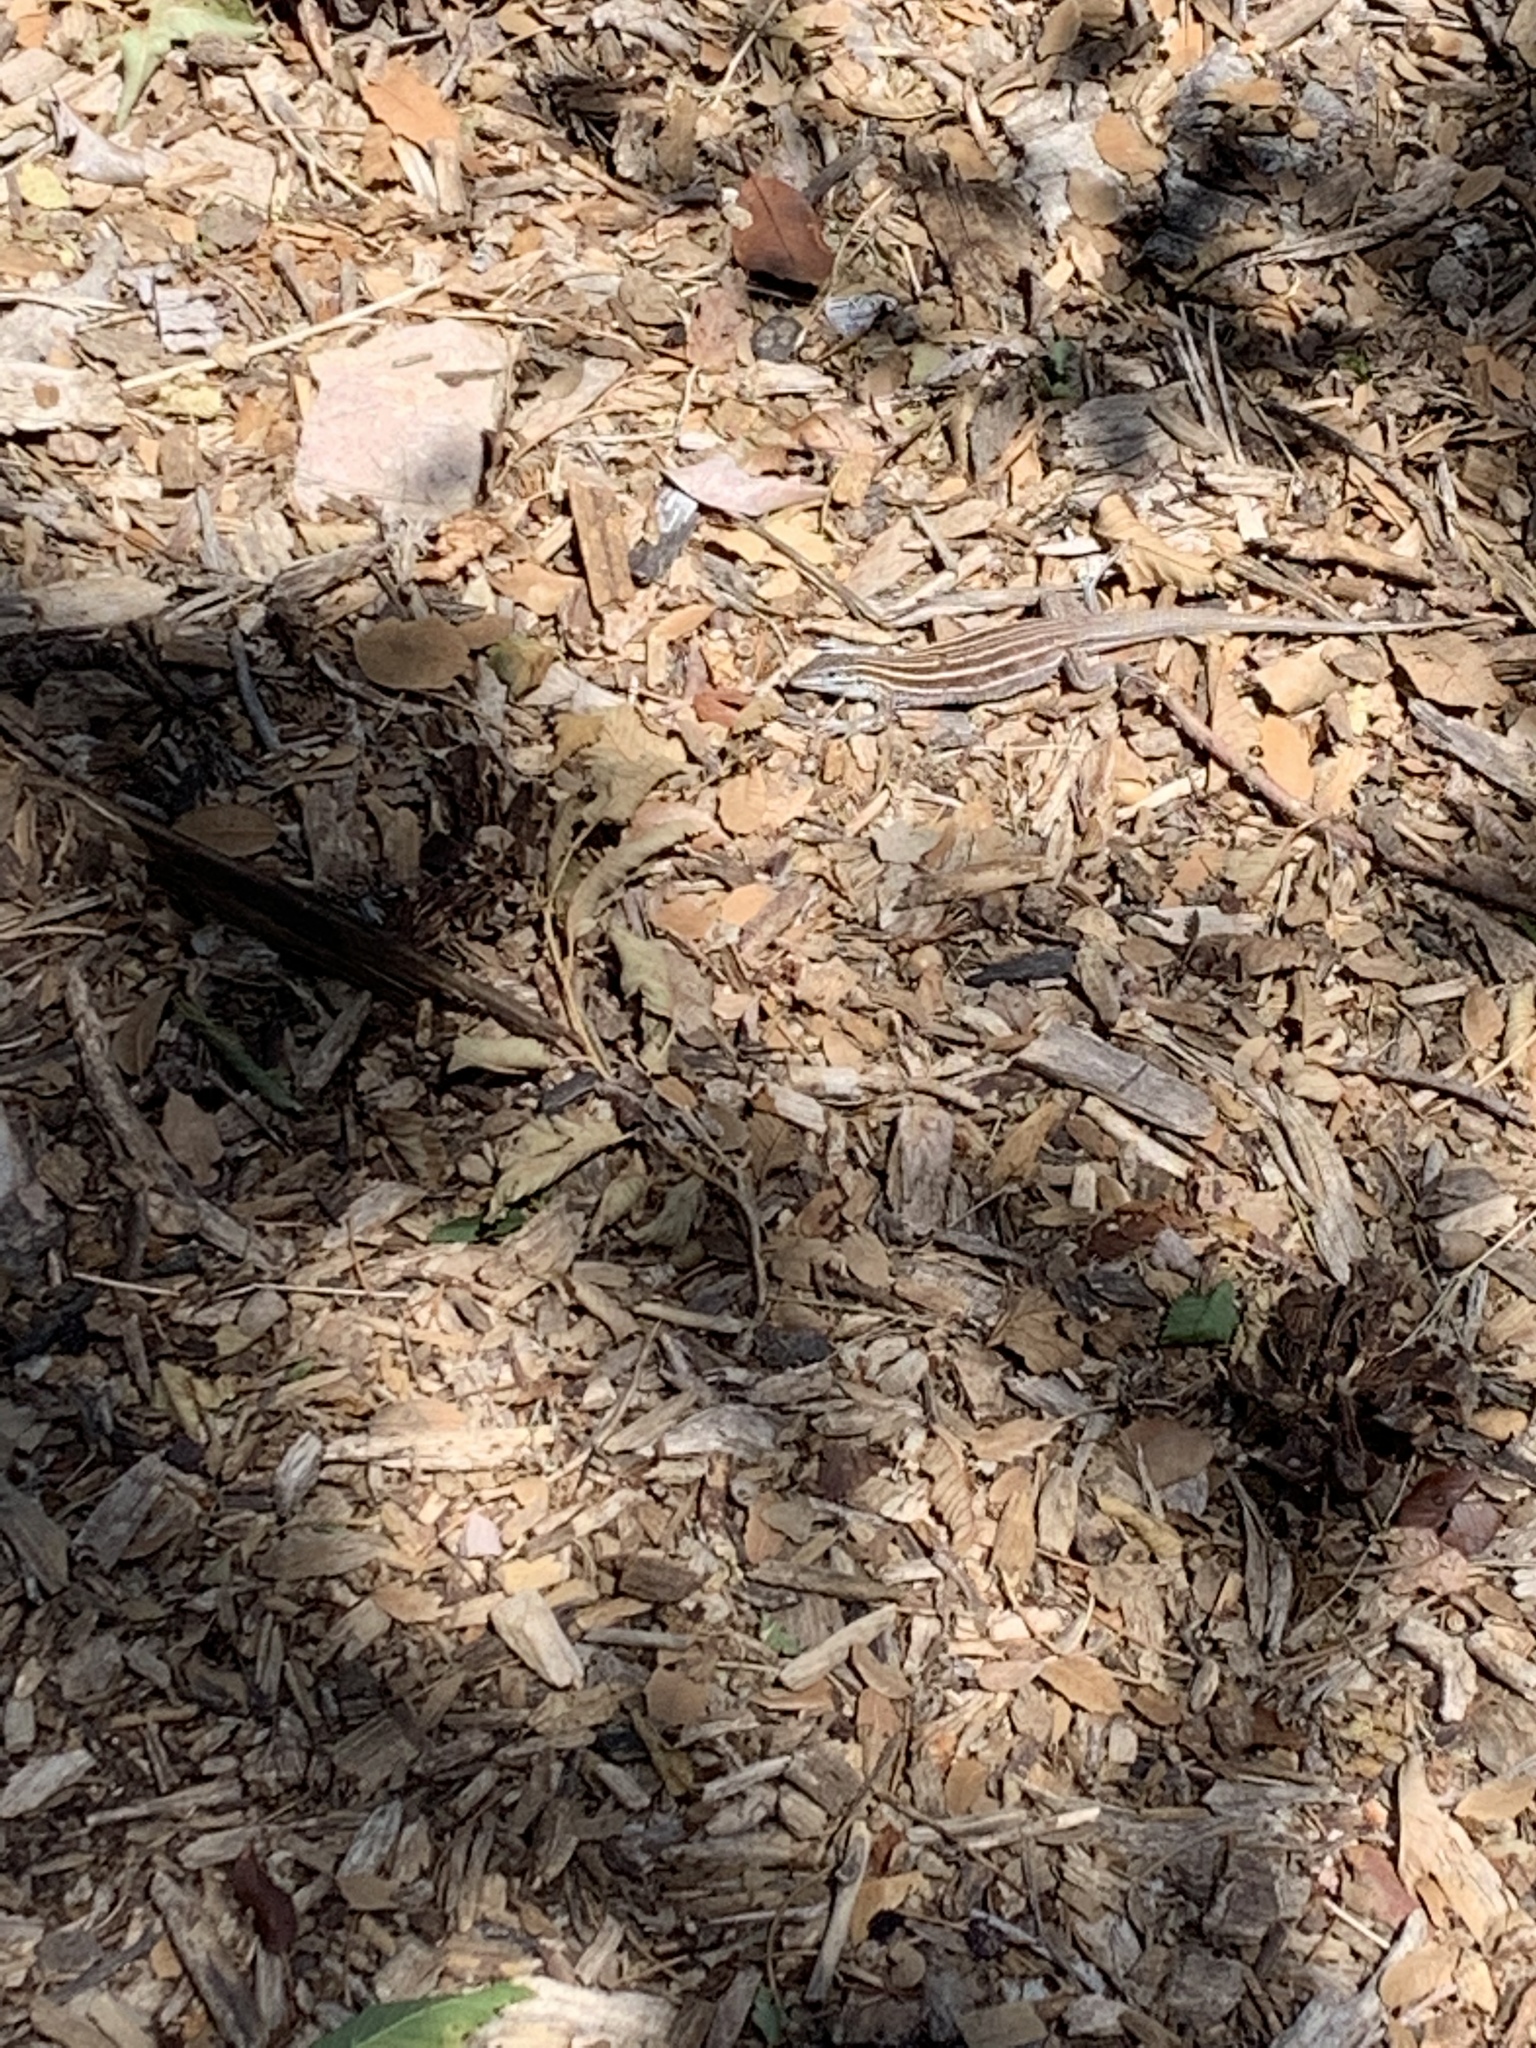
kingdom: Animalia
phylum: Chordata
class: Squamata
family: Teiidae
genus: Aspidoscelis
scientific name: Aspidoscelis sonorae
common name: Sonoran spotted whiptail
